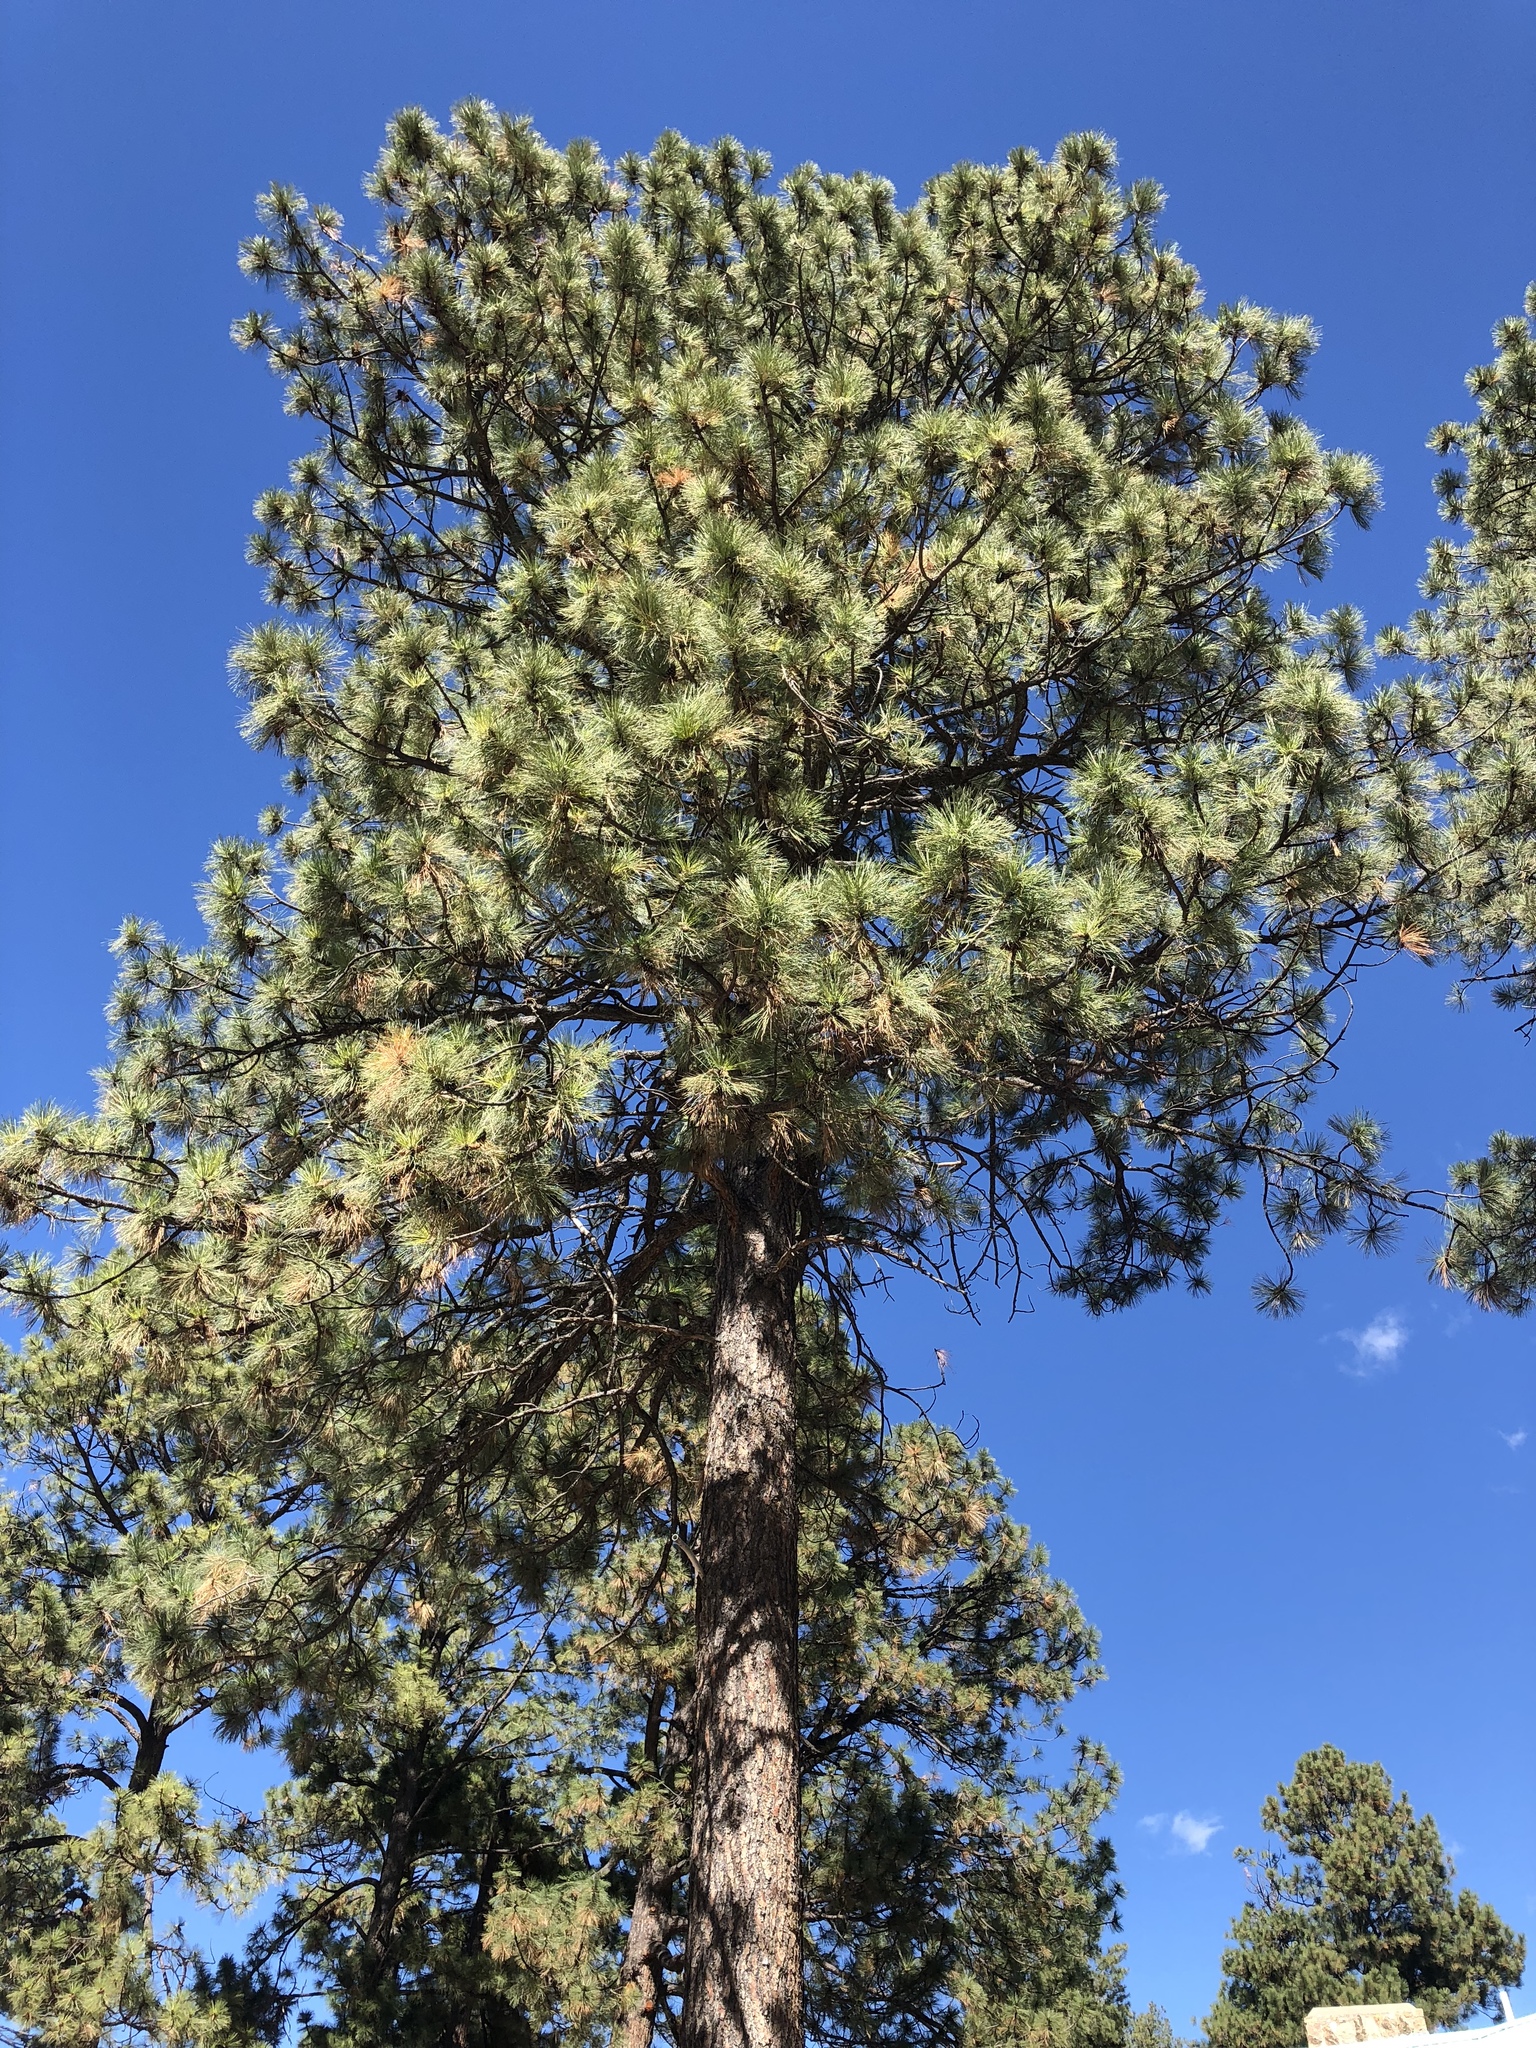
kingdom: Plantae
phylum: Tracheophyta
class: Pinopsida
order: Pinales
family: Pinaceae
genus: Pinus
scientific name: Pinus ponderosa
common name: Western yellow-pine
